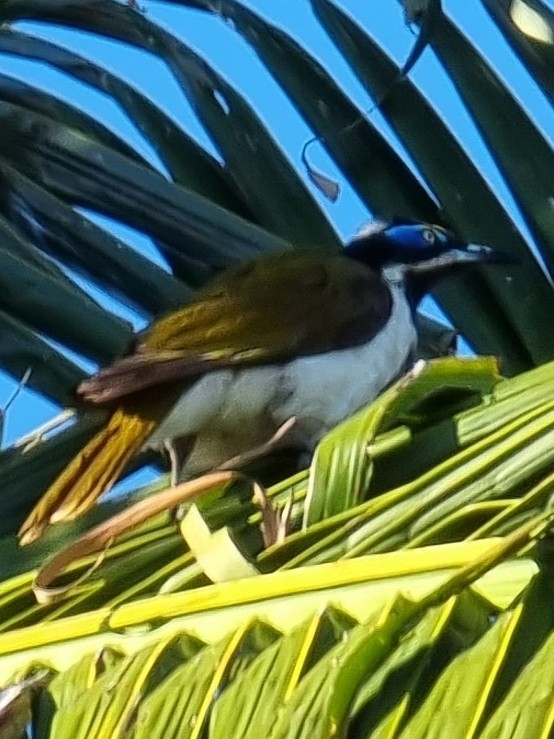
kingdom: Animalia
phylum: Chordata
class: Aves
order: Passeriformes
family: Meliphagidae
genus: Entomyzon
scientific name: Entomyzon cyanotis
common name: Blue-faced honeyeater
